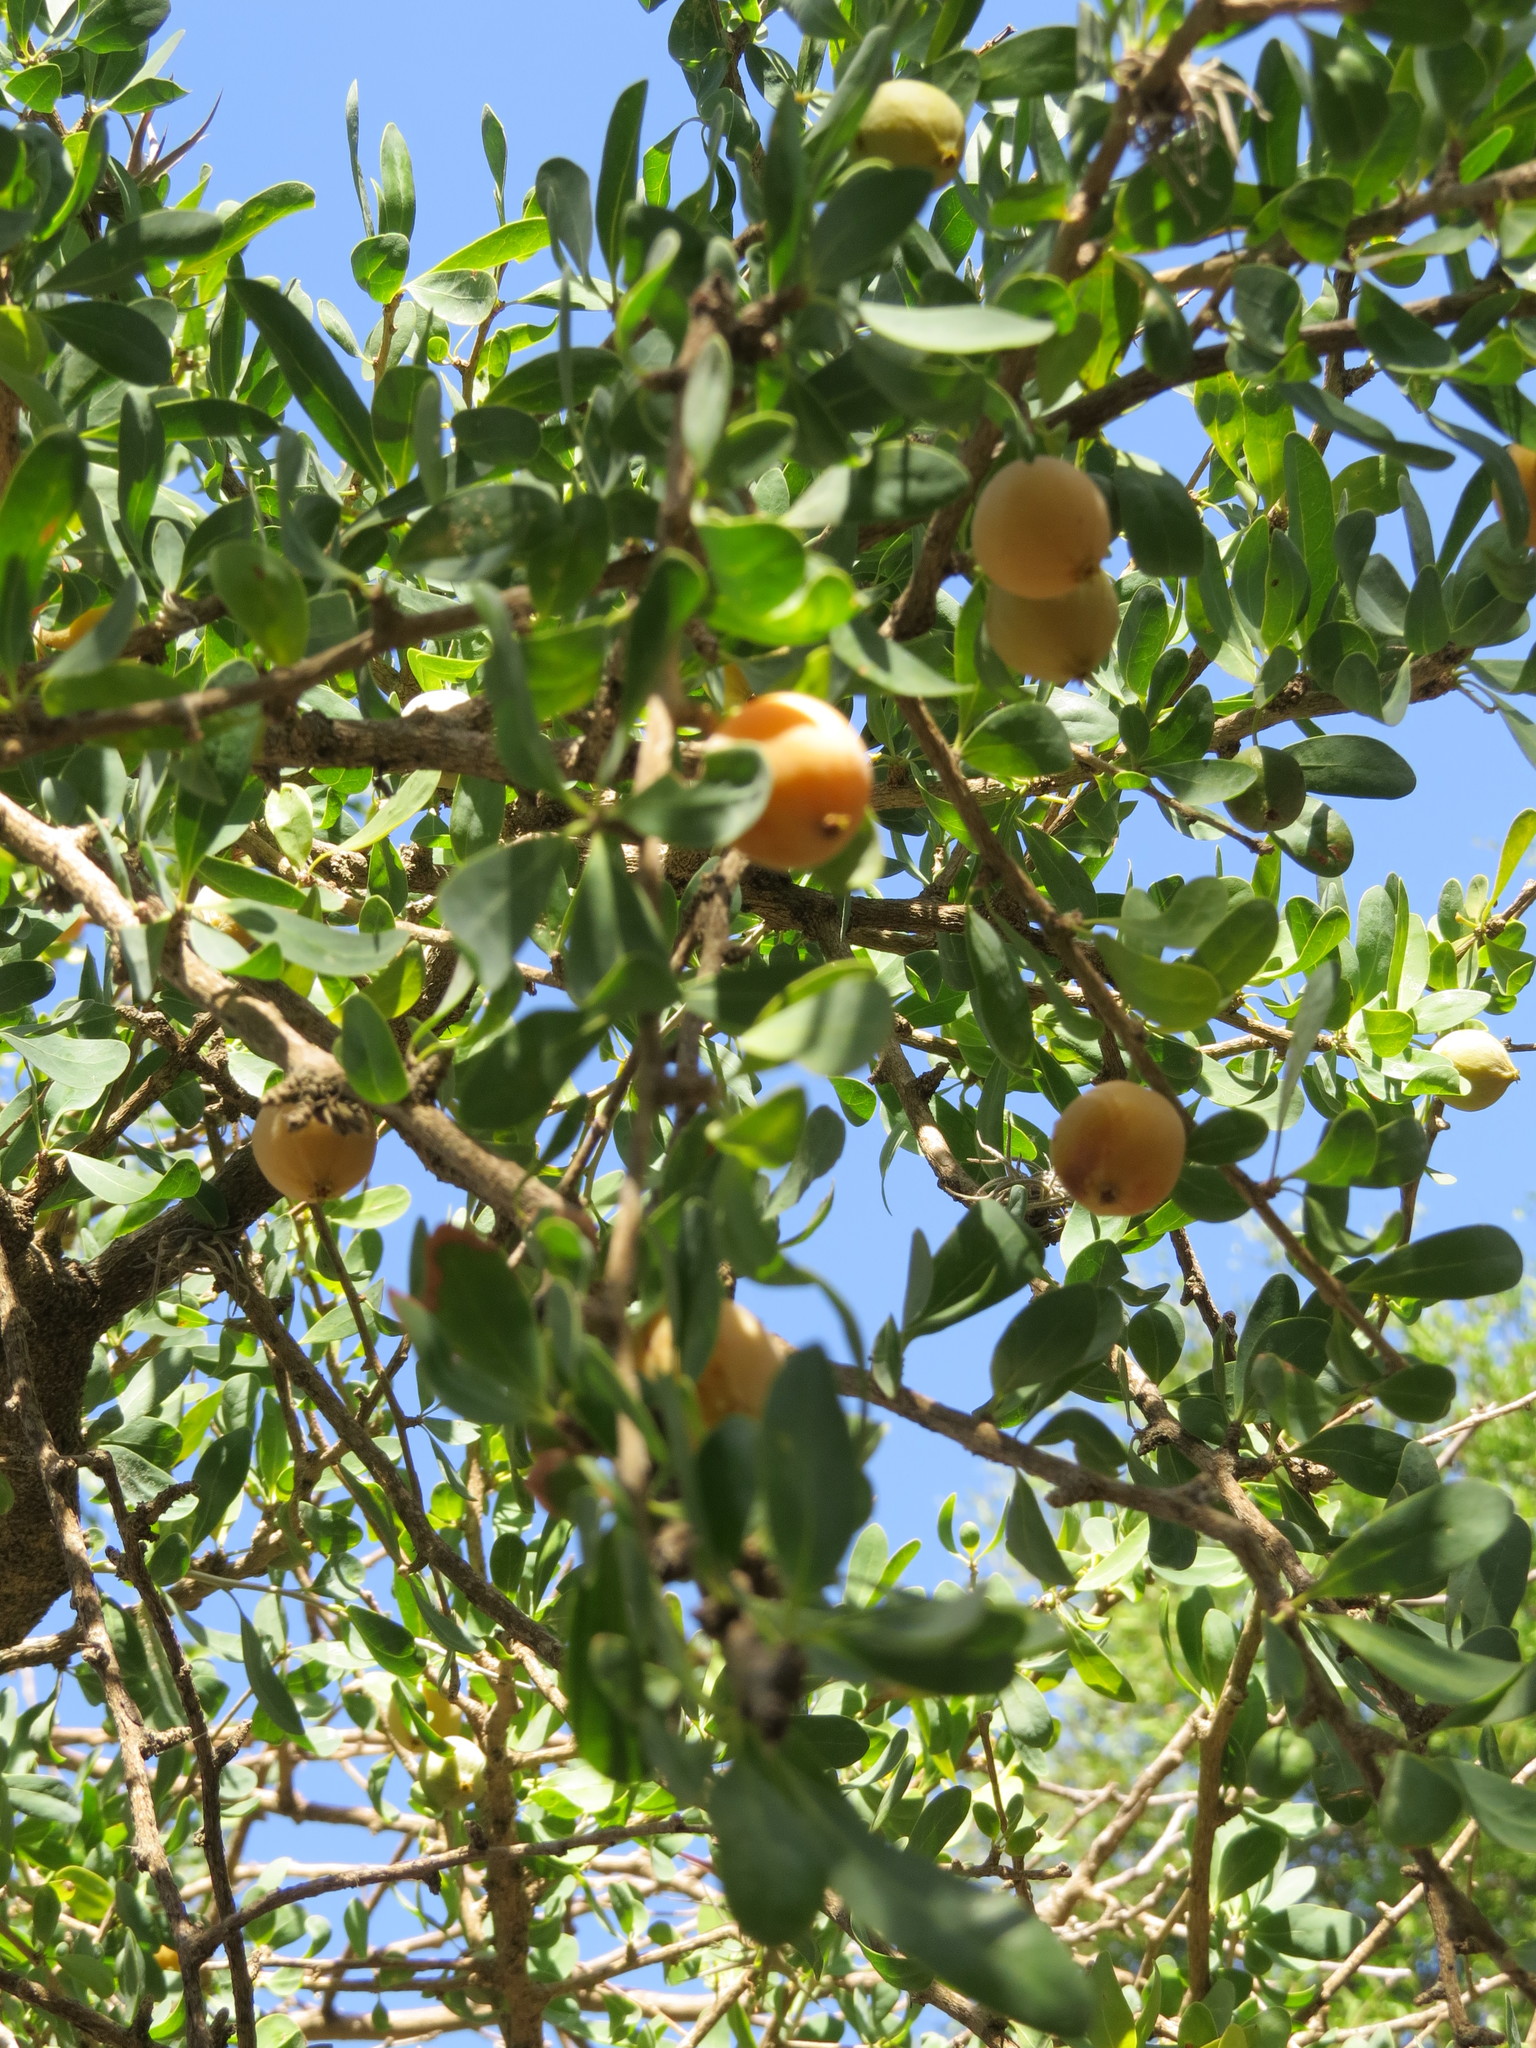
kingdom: Plantae
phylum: Tracheophyta
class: Magnoliopsida
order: Santalales
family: Cervantesiaceae
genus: Acanthosyris
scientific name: Acanthosyris spinescens
